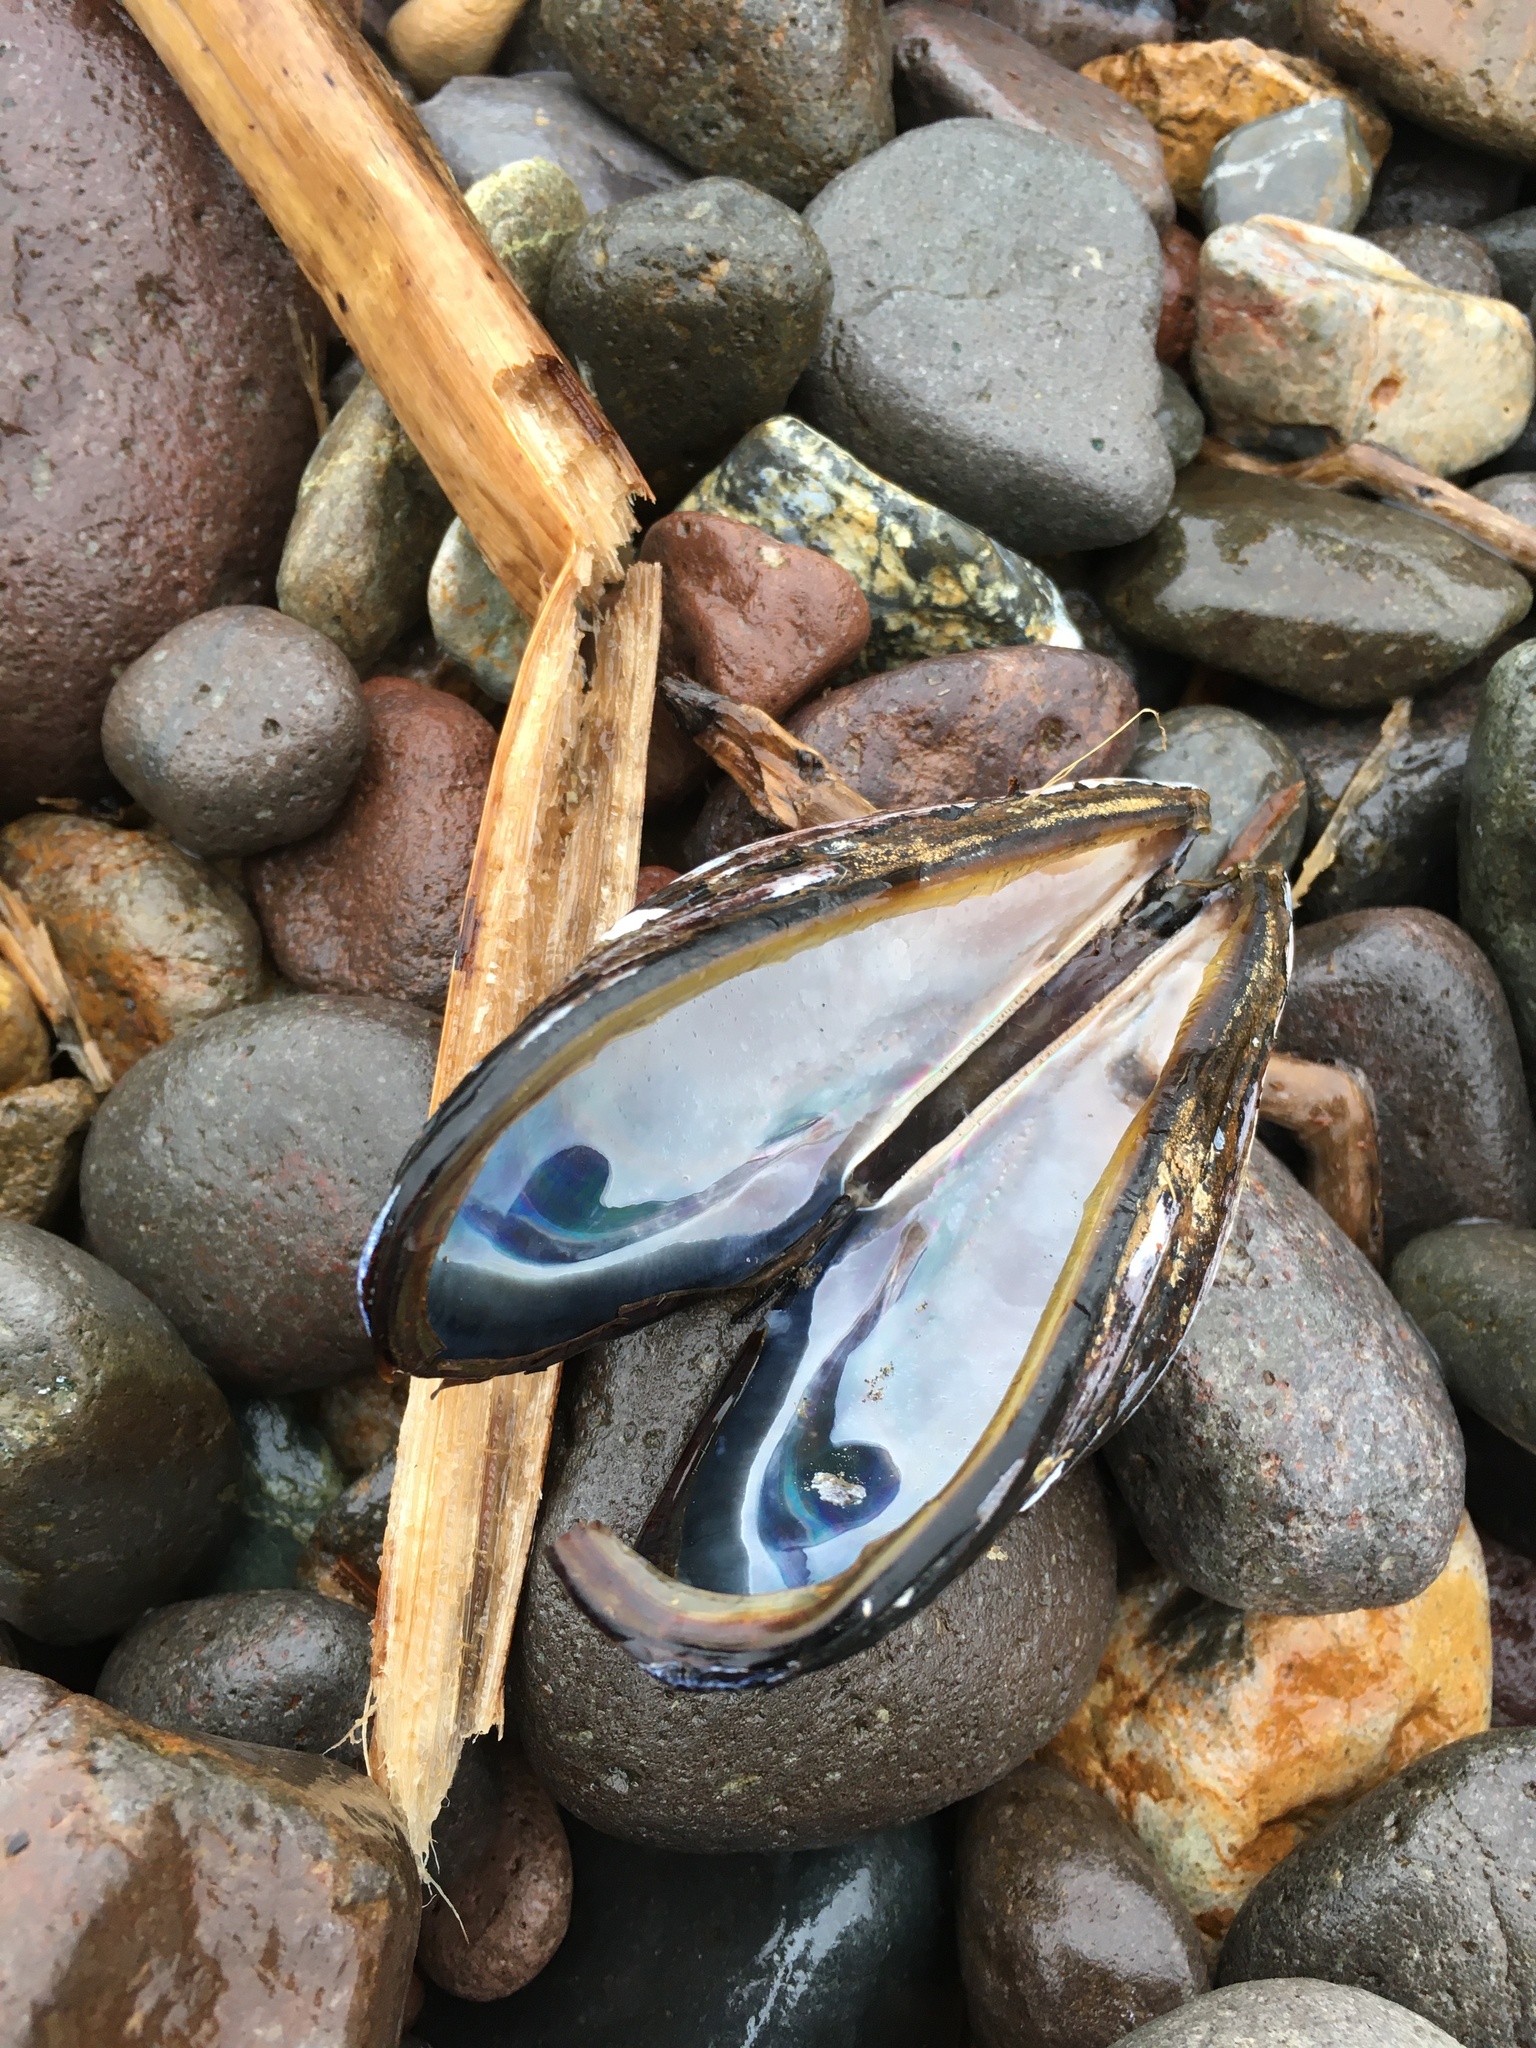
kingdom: Animalia
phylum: Mollusca
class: Bivalvia
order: Mytilida
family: Mytilidae
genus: Mytilus
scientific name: Mytilus californianus
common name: California mussel
